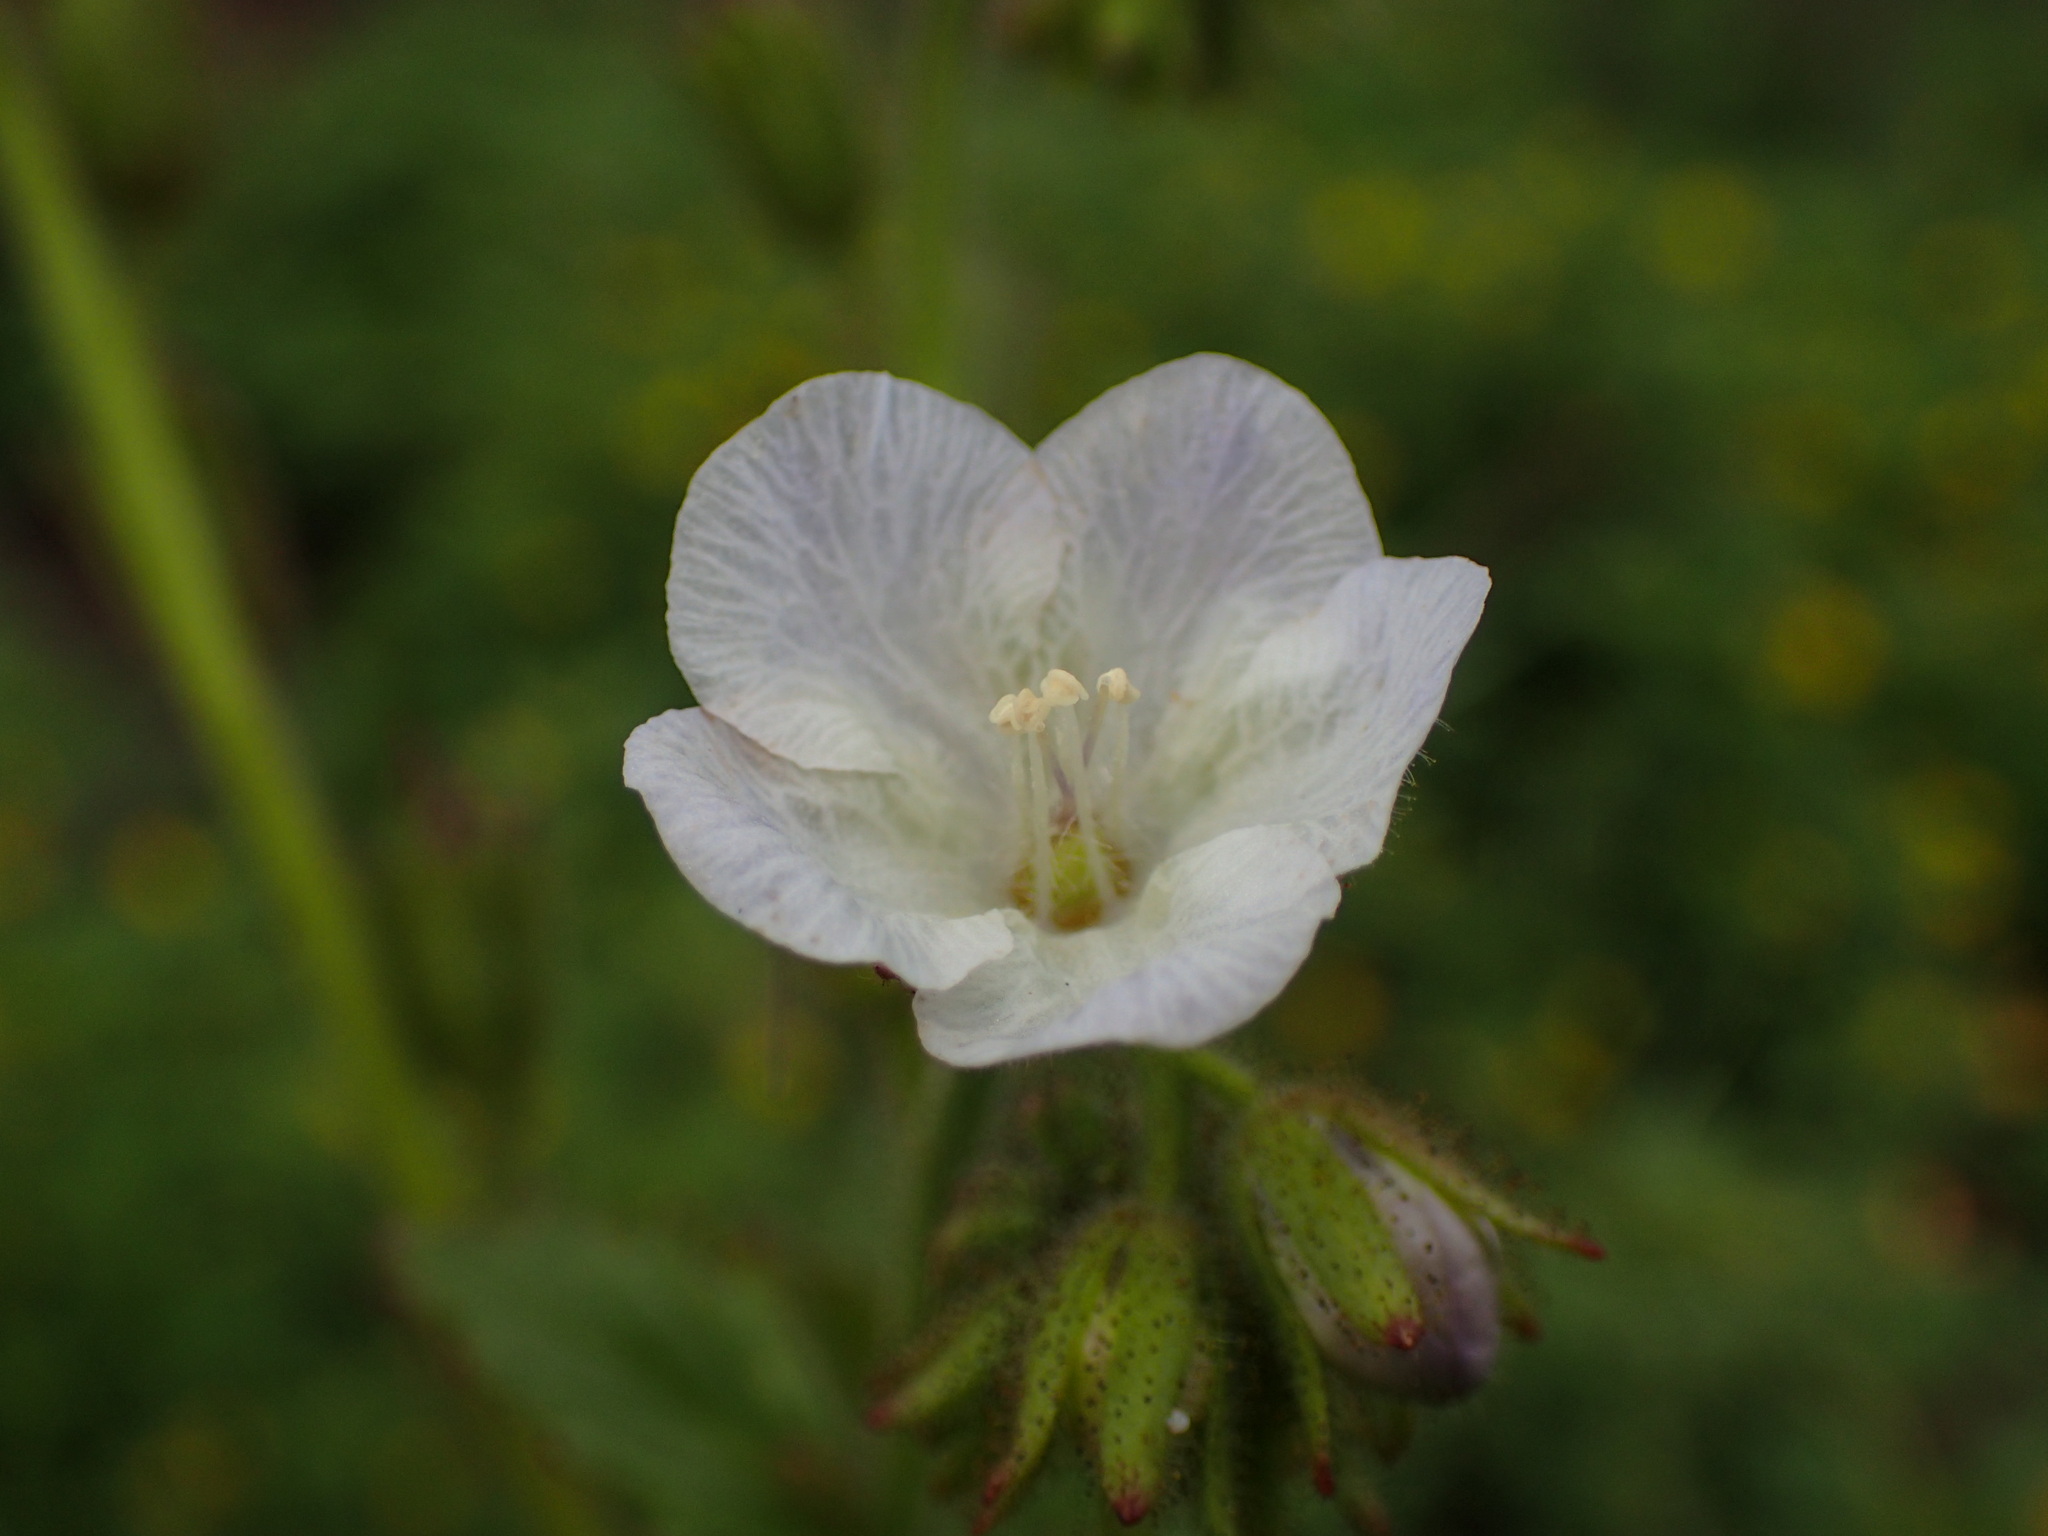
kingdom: Plantae
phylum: Tracheophyta
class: Magnoliopsida
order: Boraginales
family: Hydrophyllaceae
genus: Phacelia
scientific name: Phacelia viscida
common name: Sticky phacelia
